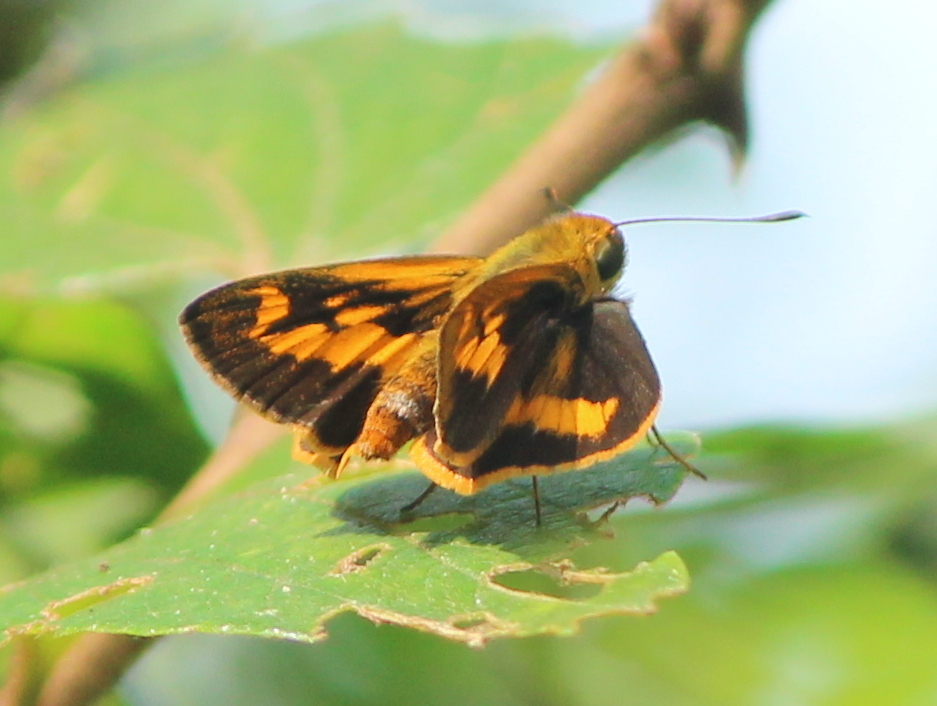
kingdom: Animalia
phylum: Arthropoda
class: Insecta
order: Lepidoptera
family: Hesperiidae
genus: Oriens
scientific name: Oriens goloides
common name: Smaller dartlet
